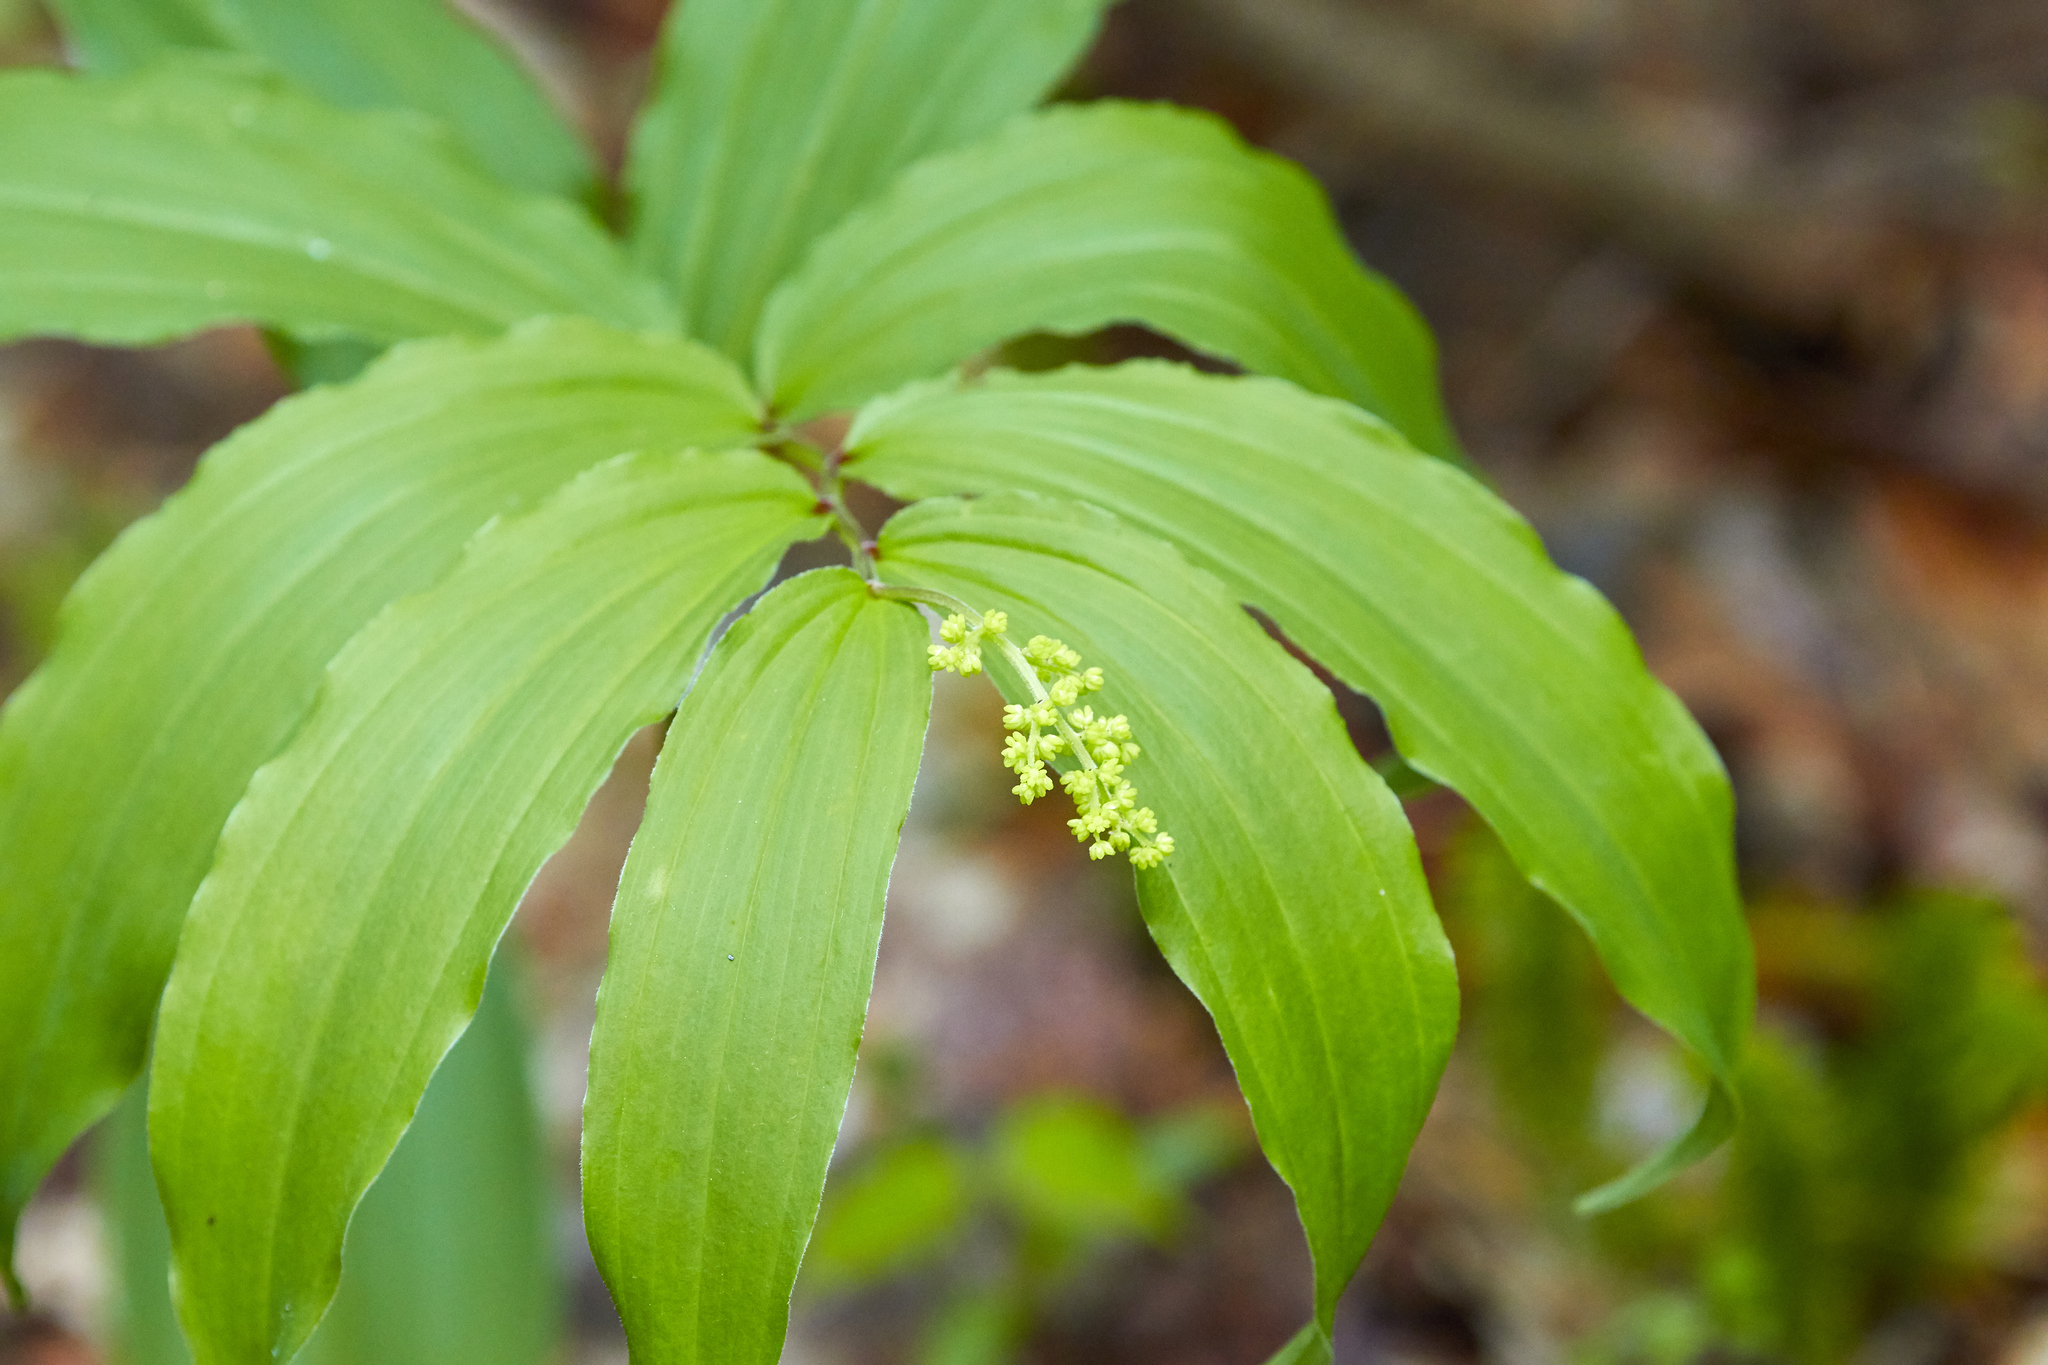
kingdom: Plantae
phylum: Tracheophyta
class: Liliopsida
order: Asparagales
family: Asparagaceae
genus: Maianthemum
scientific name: Maianthemum racemosum
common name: False spikenard
